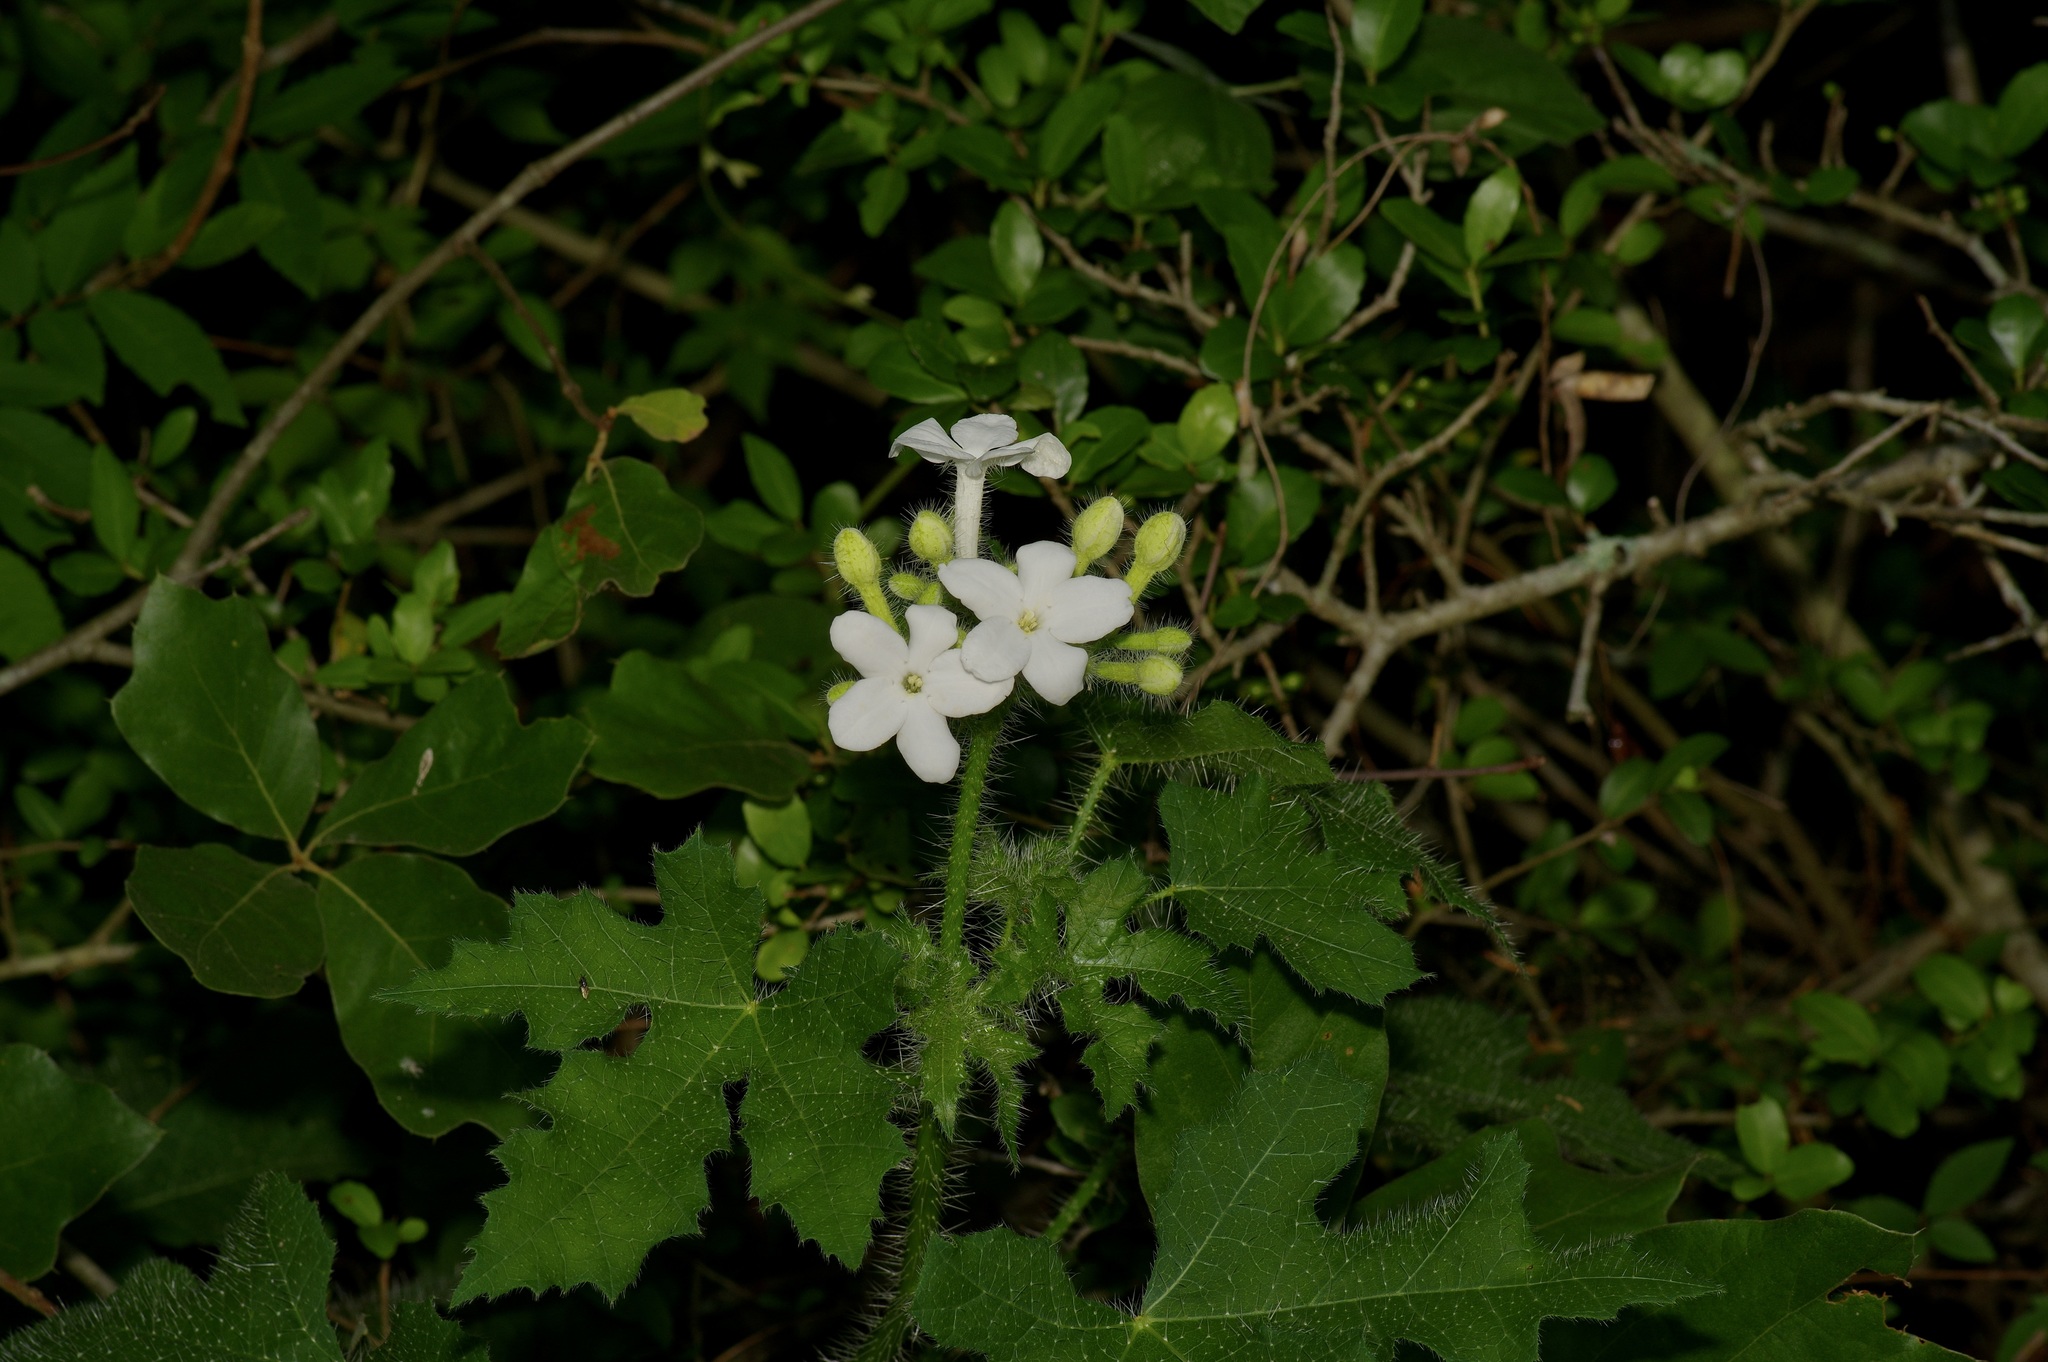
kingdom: Plantae
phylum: Tracheophyta
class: Magnoliopsida
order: Malpighiales
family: Euphorbiaceae
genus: Cnidoscolus
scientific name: Cnidoscolus texanus
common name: Texas bull-nettle
